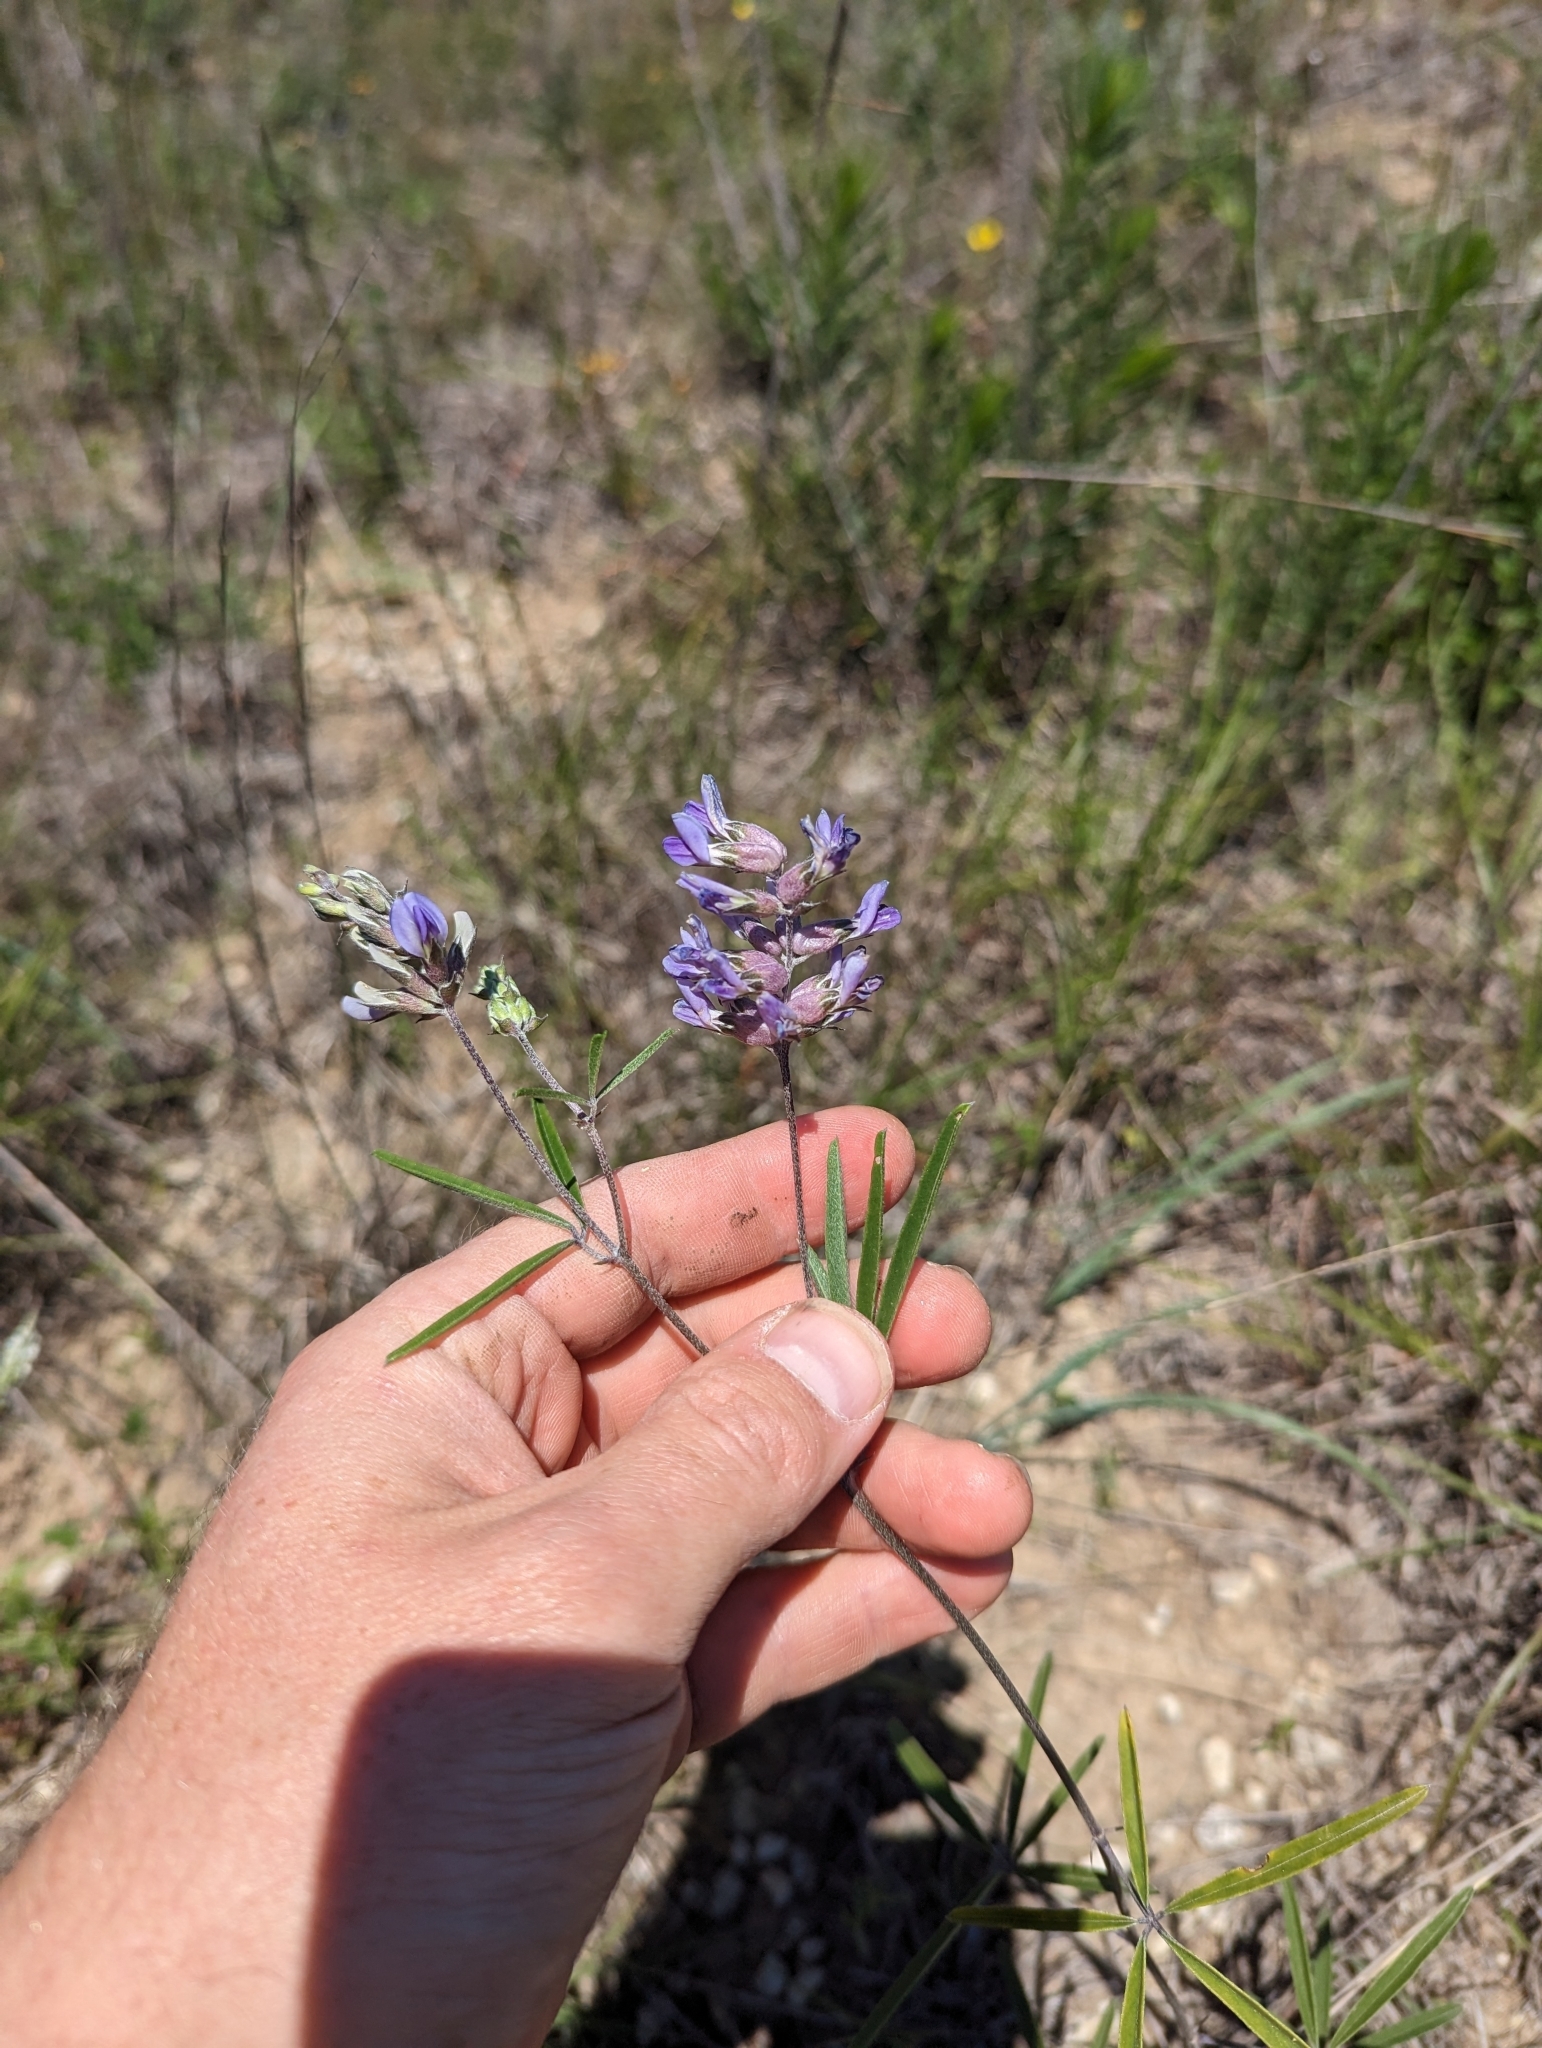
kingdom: Plantae
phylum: Tracheophyta
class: Magnoliopsida
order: Fabales
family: Fabaceae
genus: Pediomelum
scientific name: Pediomelum cyphocalyx
